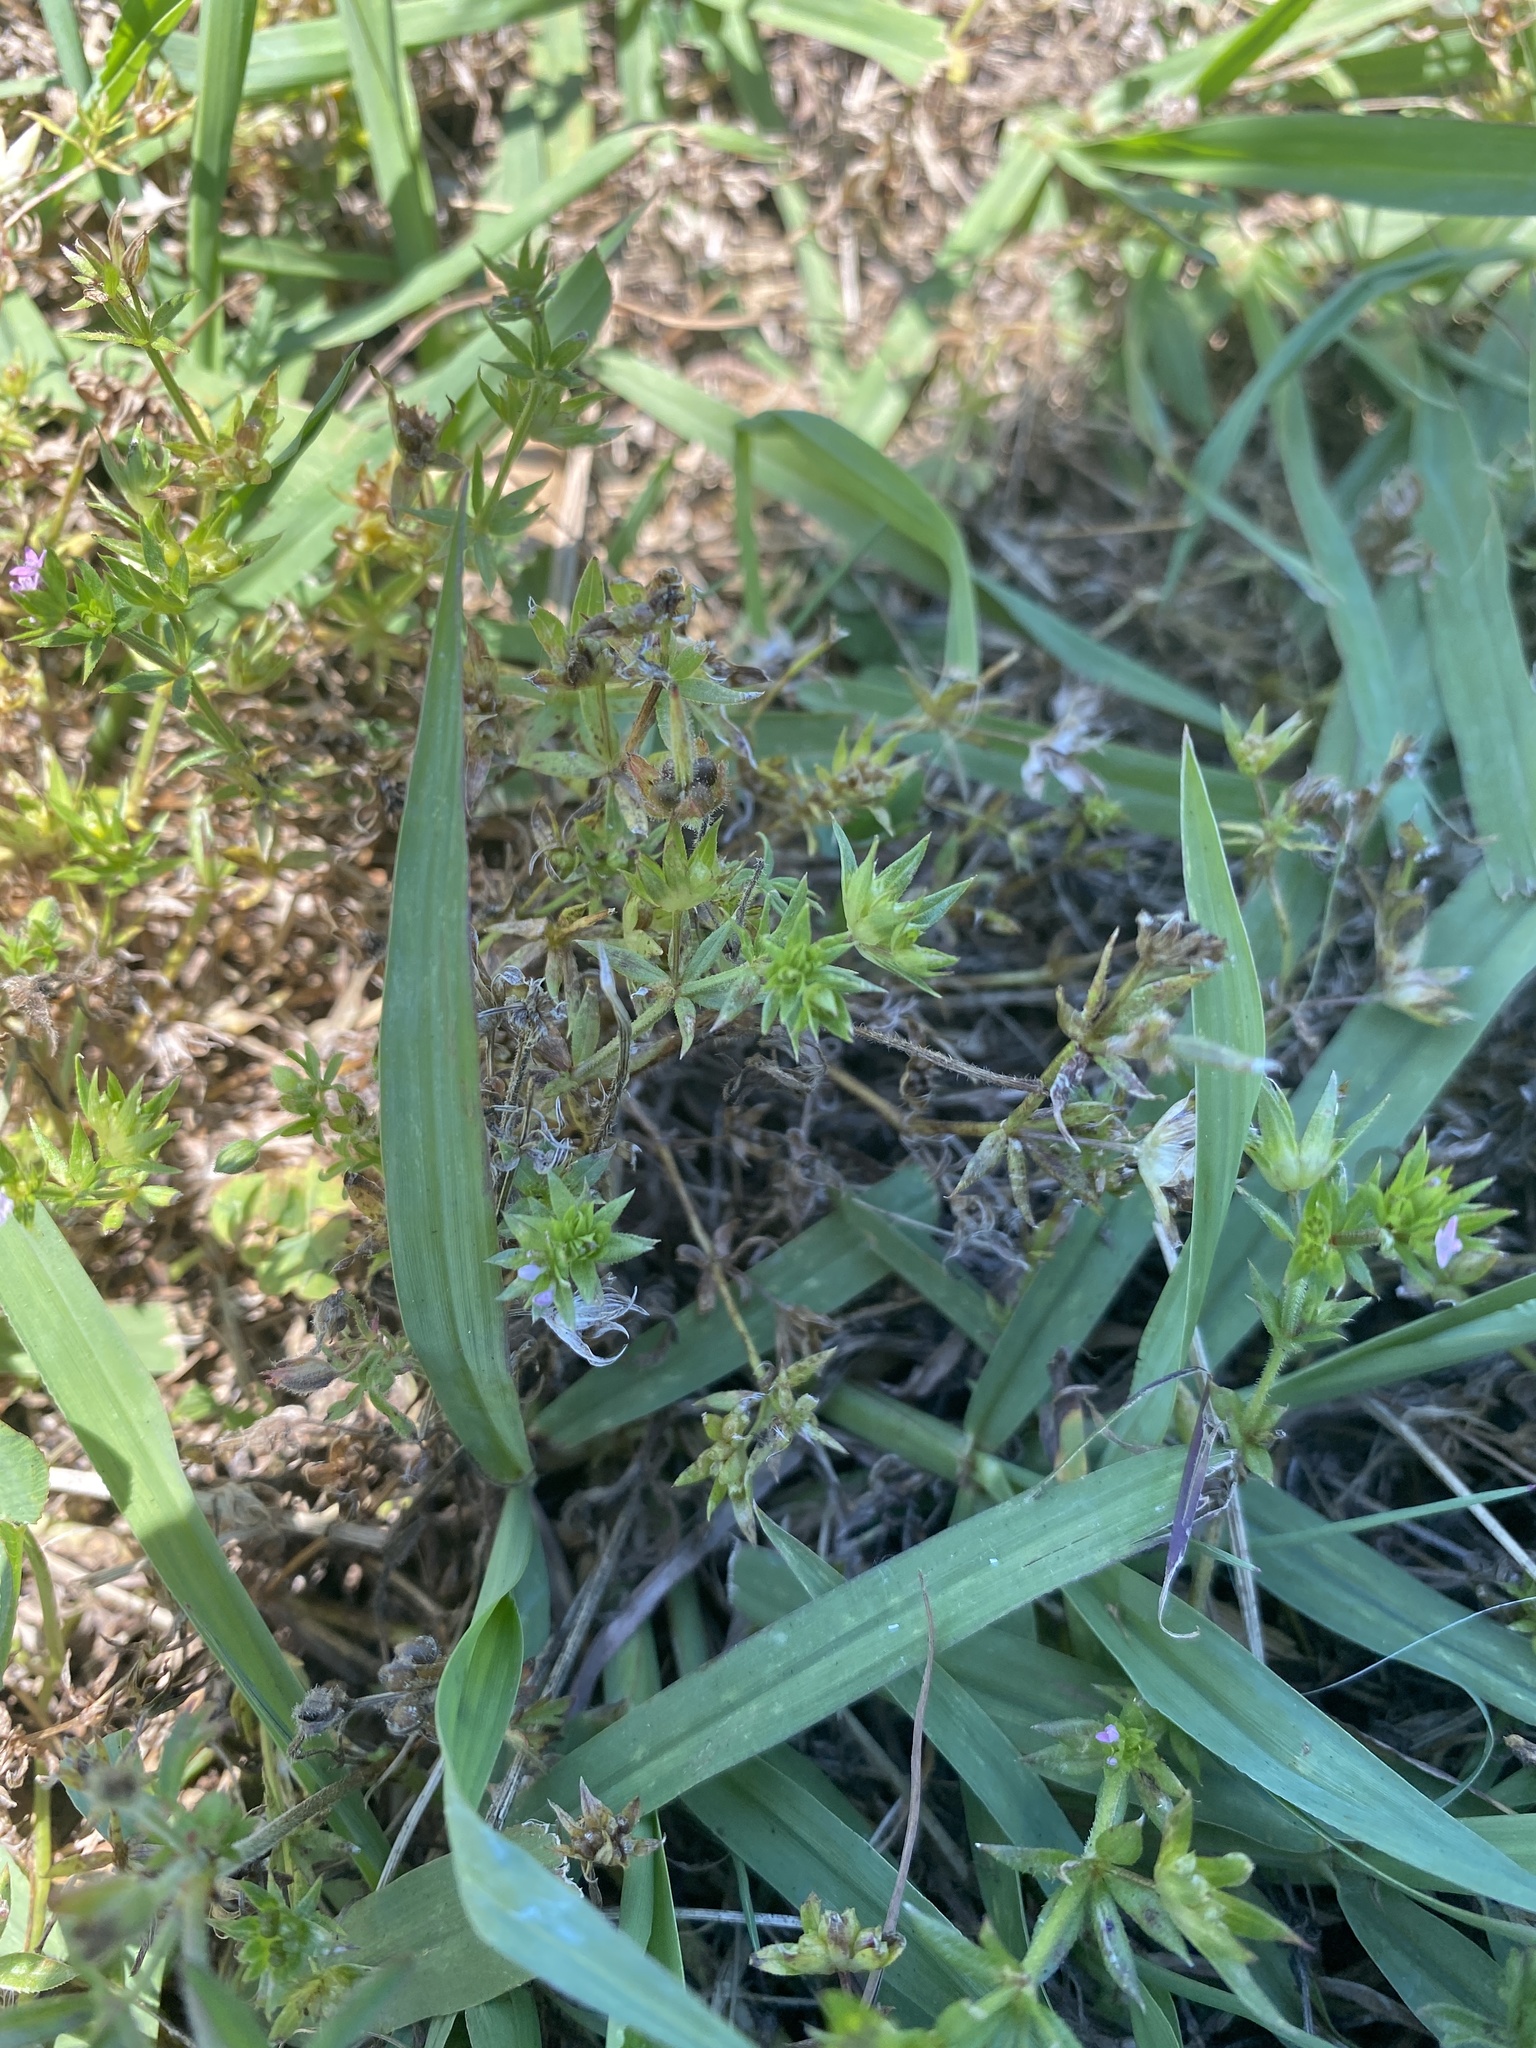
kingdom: Plantae
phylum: Tracheophyta
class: Magnoliopsida
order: Gentianales
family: Rubiaceae
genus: Sherardia
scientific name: Sherardia arvensis
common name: Field madder
